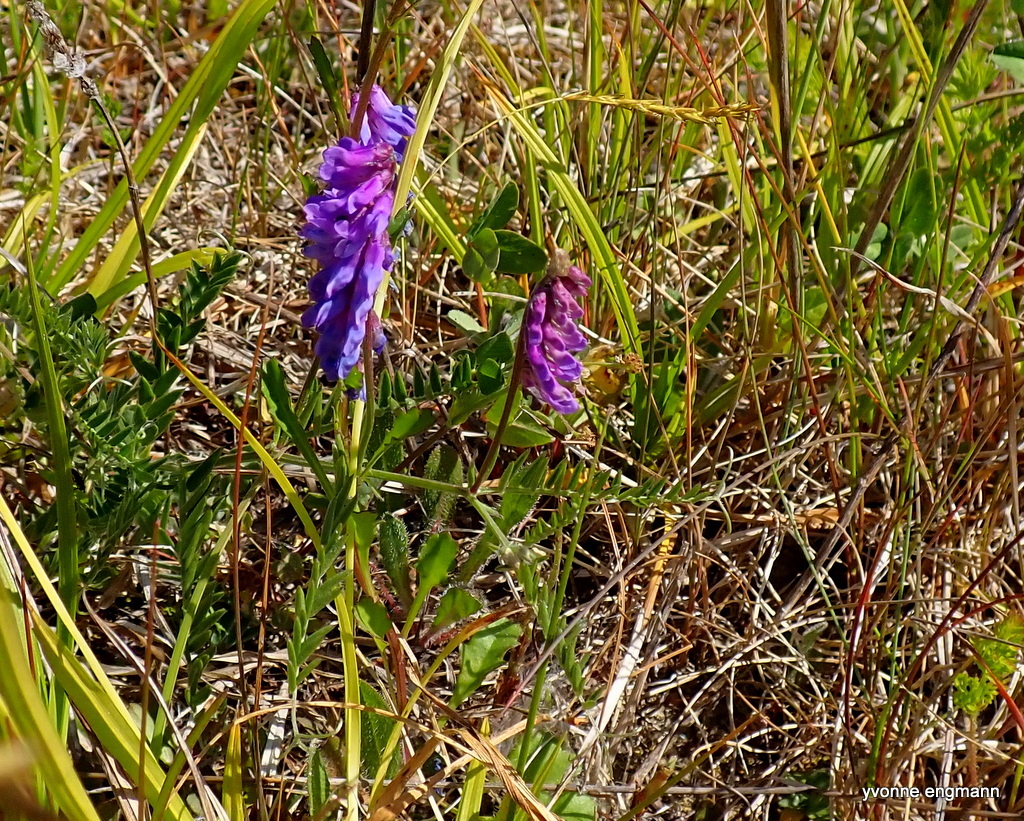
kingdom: Plantae
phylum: Tracheophyta
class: Magnoliopsida
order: Fabales
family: Fabaceae
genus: Vicia
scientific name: Vicia cracca
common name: Bird vetch
